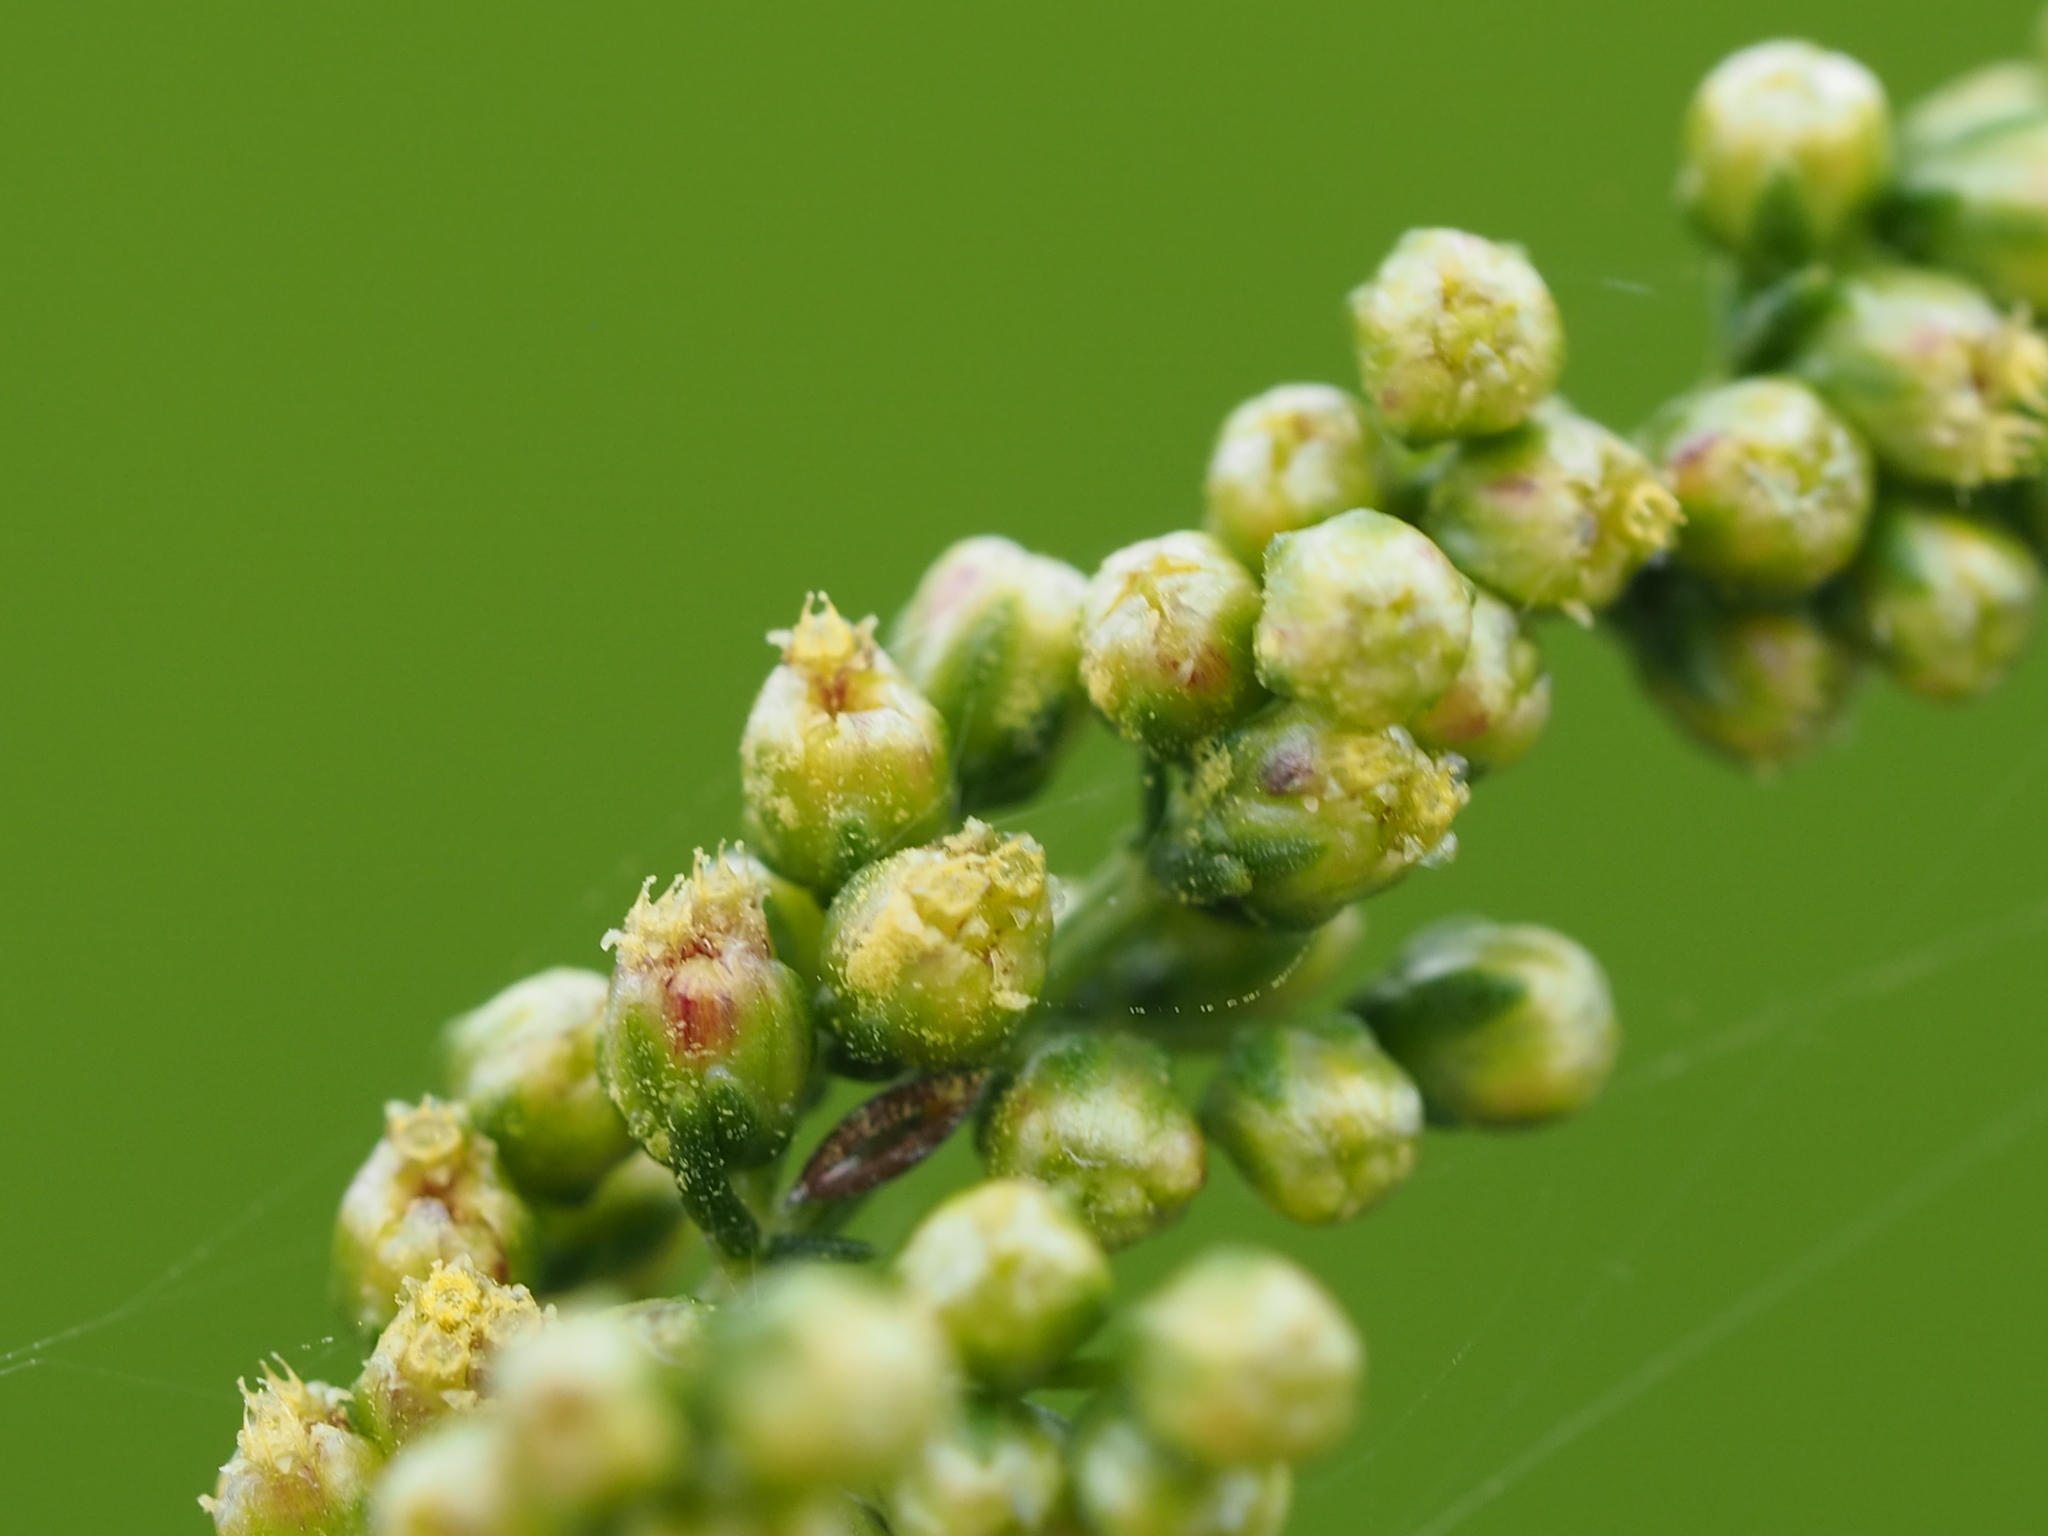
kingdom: Plantae
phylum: Tracheophyta
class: Magnoliopsida
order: Asterales
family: Asteraceae
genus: Artemisia
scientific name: Artemisia capillaris
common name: Yin-chen wormwood
